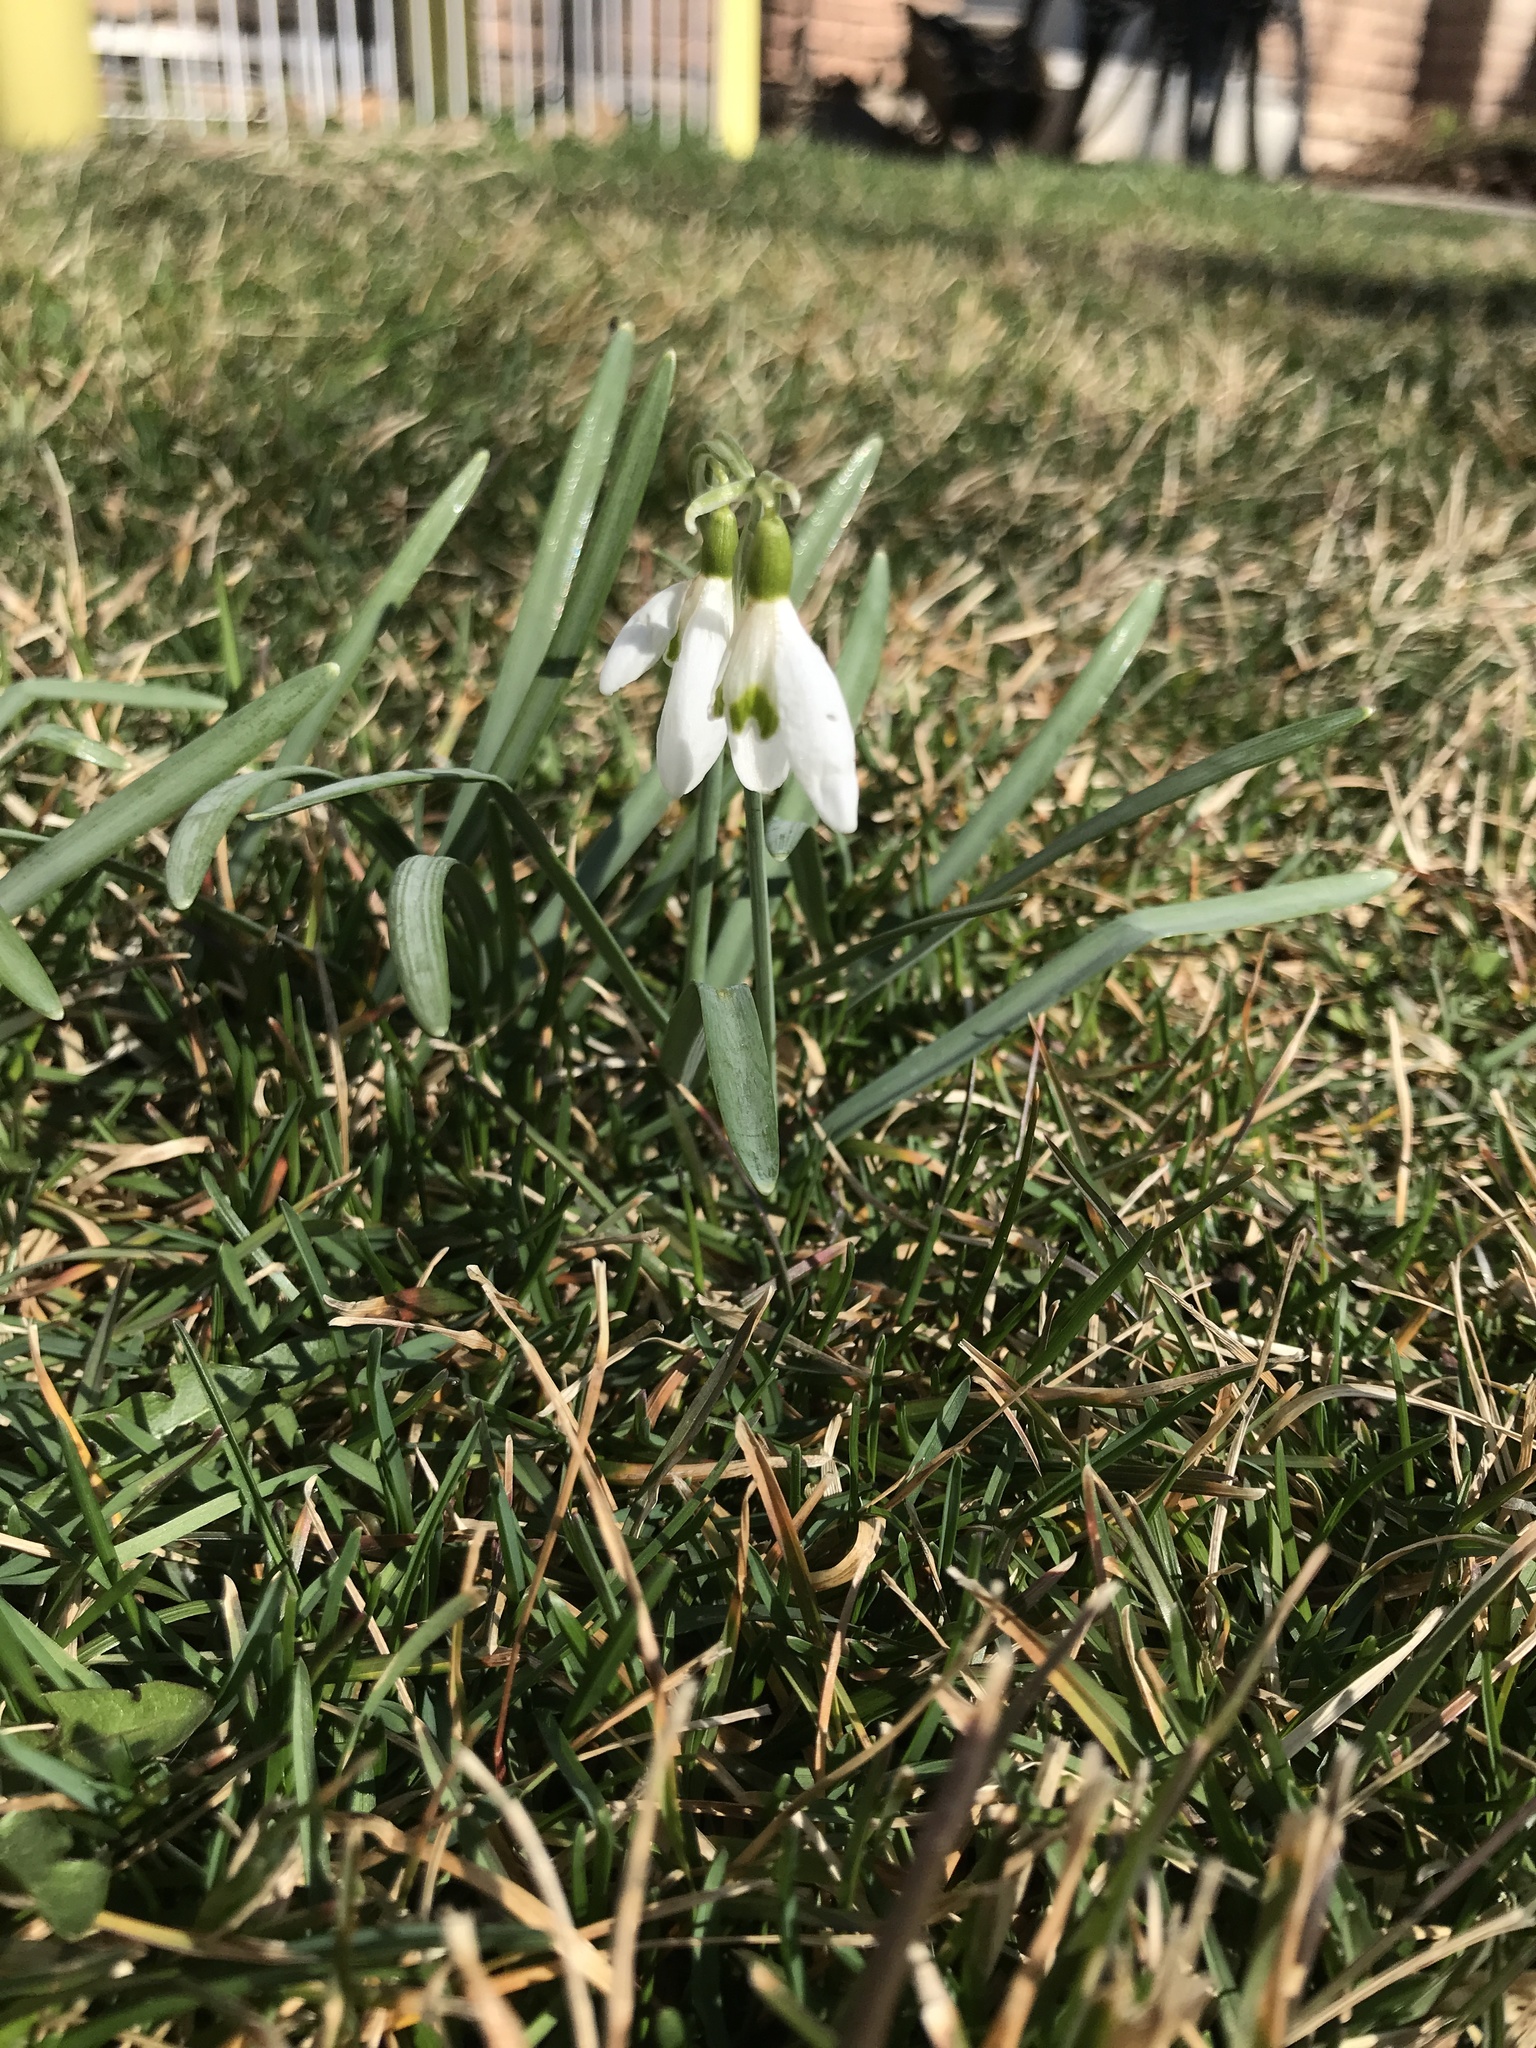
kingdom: Plantae
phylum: Tracheophyta
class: Liliopsida
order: Asparagales
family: Amaryllidaceae
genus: Galanthus
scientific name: Galanthus nivalis
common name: Snowdrop
